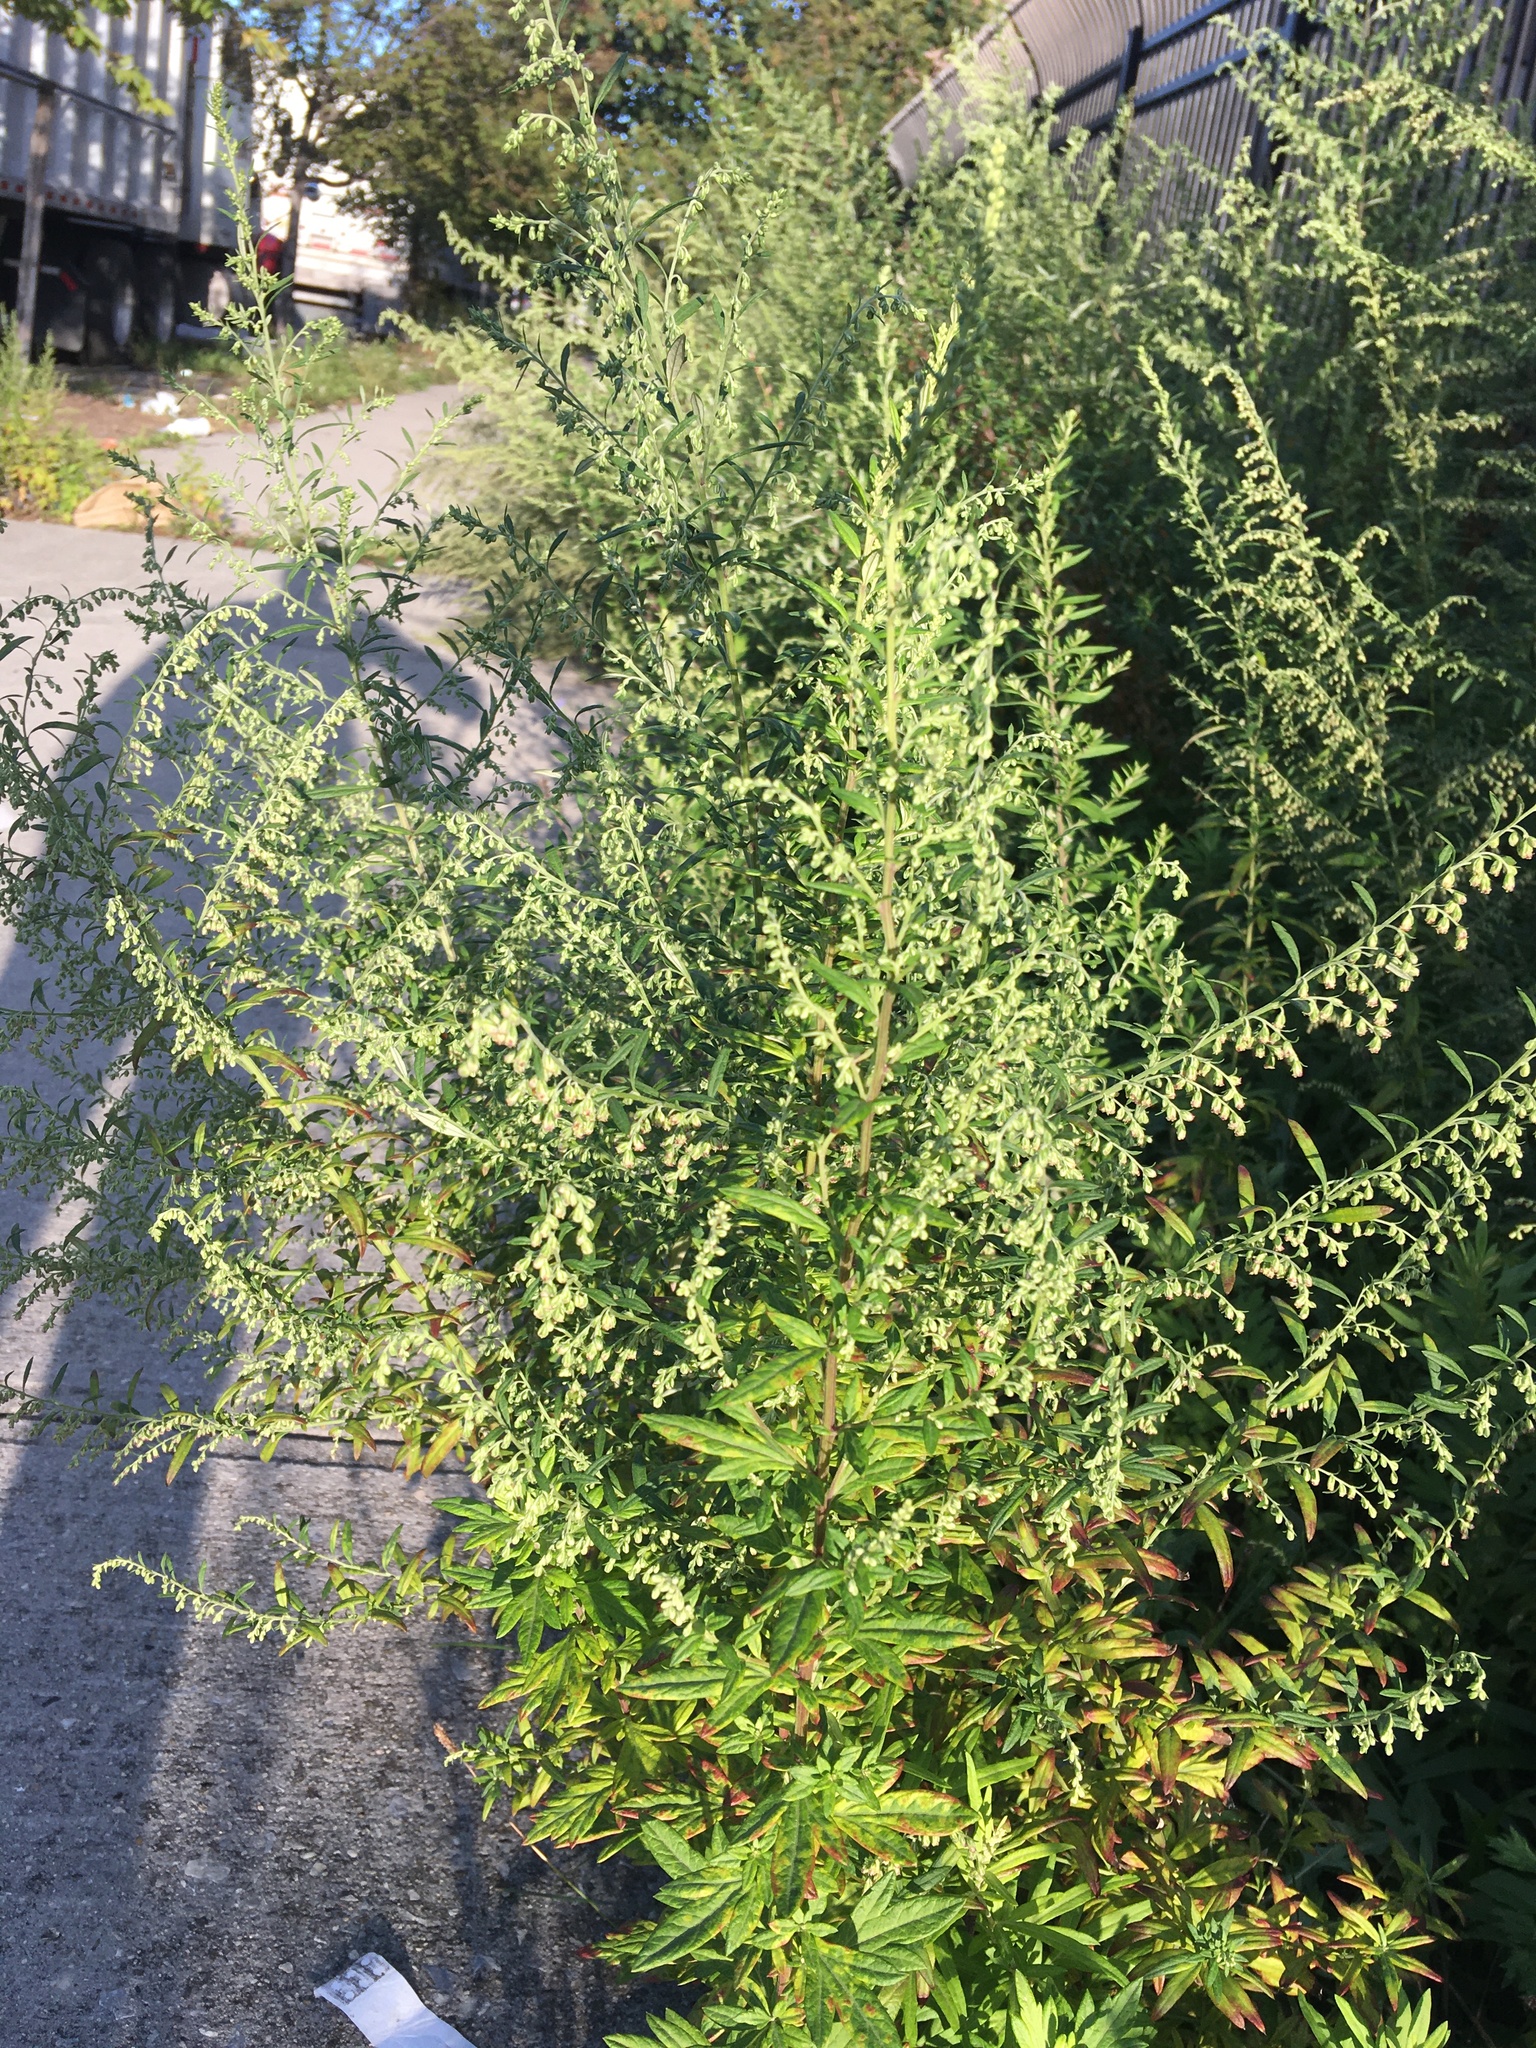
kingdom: Plantae
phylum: Tracheophyta
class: Magnoliopsida
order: Asterales
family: Asteraceae
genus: Artemisia
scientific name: Artemisia vulgaris
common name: Mugwort
